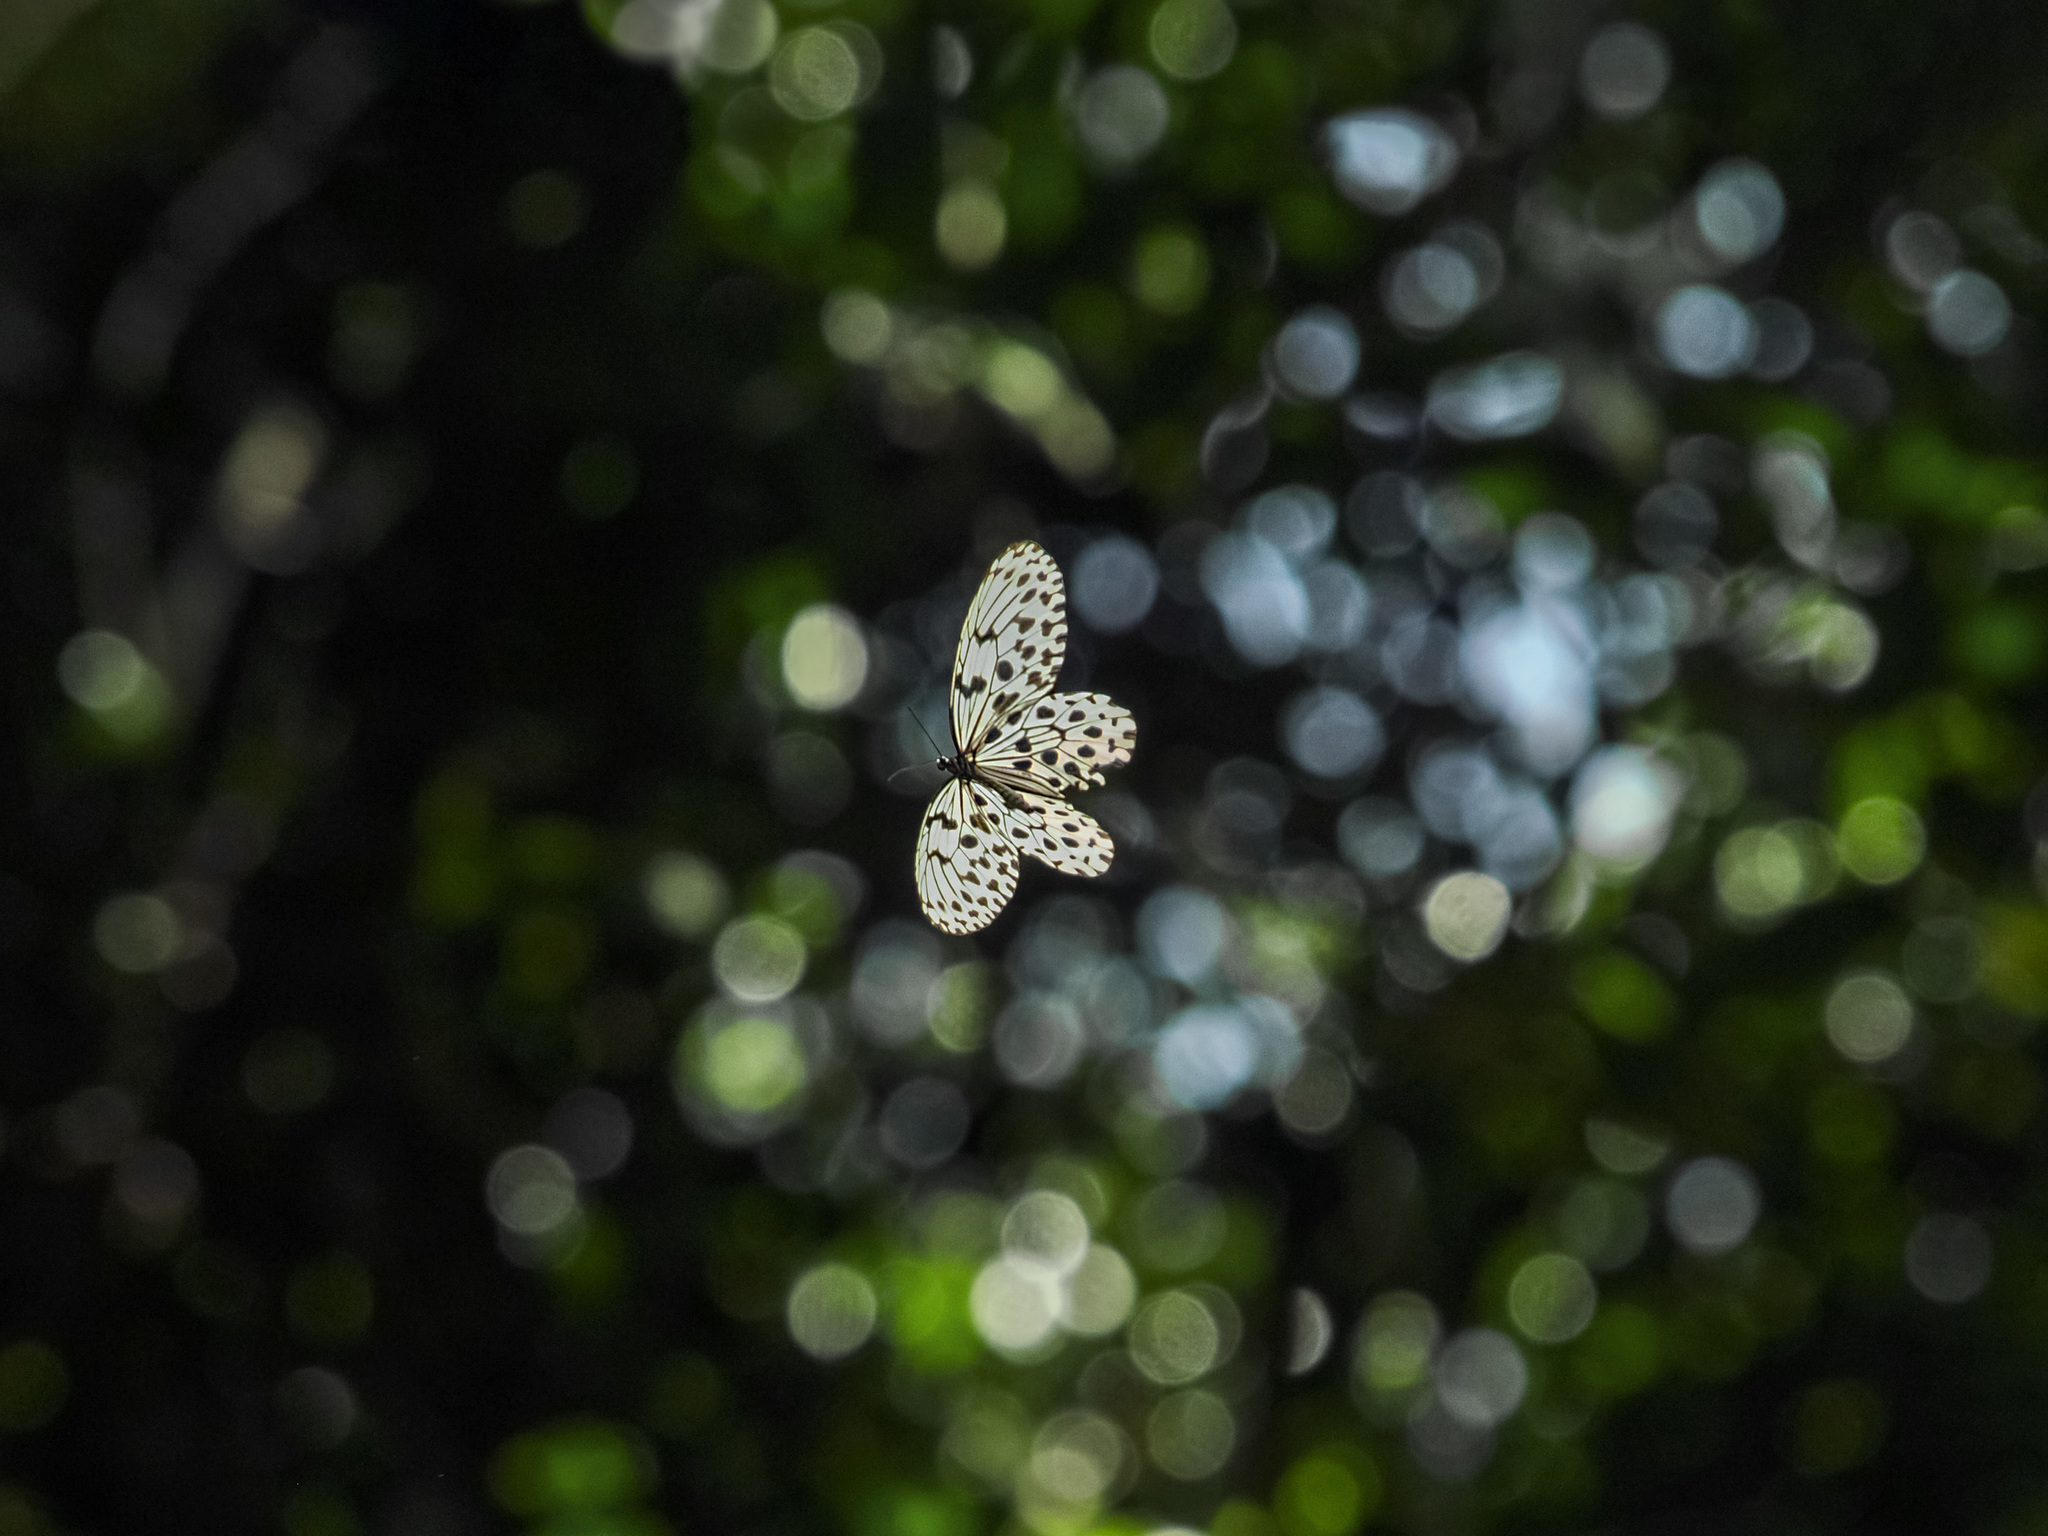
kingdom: Animalia
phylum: Arthropoda
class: Insecta
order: Lepidoptera
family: Nymphalidae
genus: Idea
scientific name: Idea hypermnestra
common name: Malayan tree nymph
